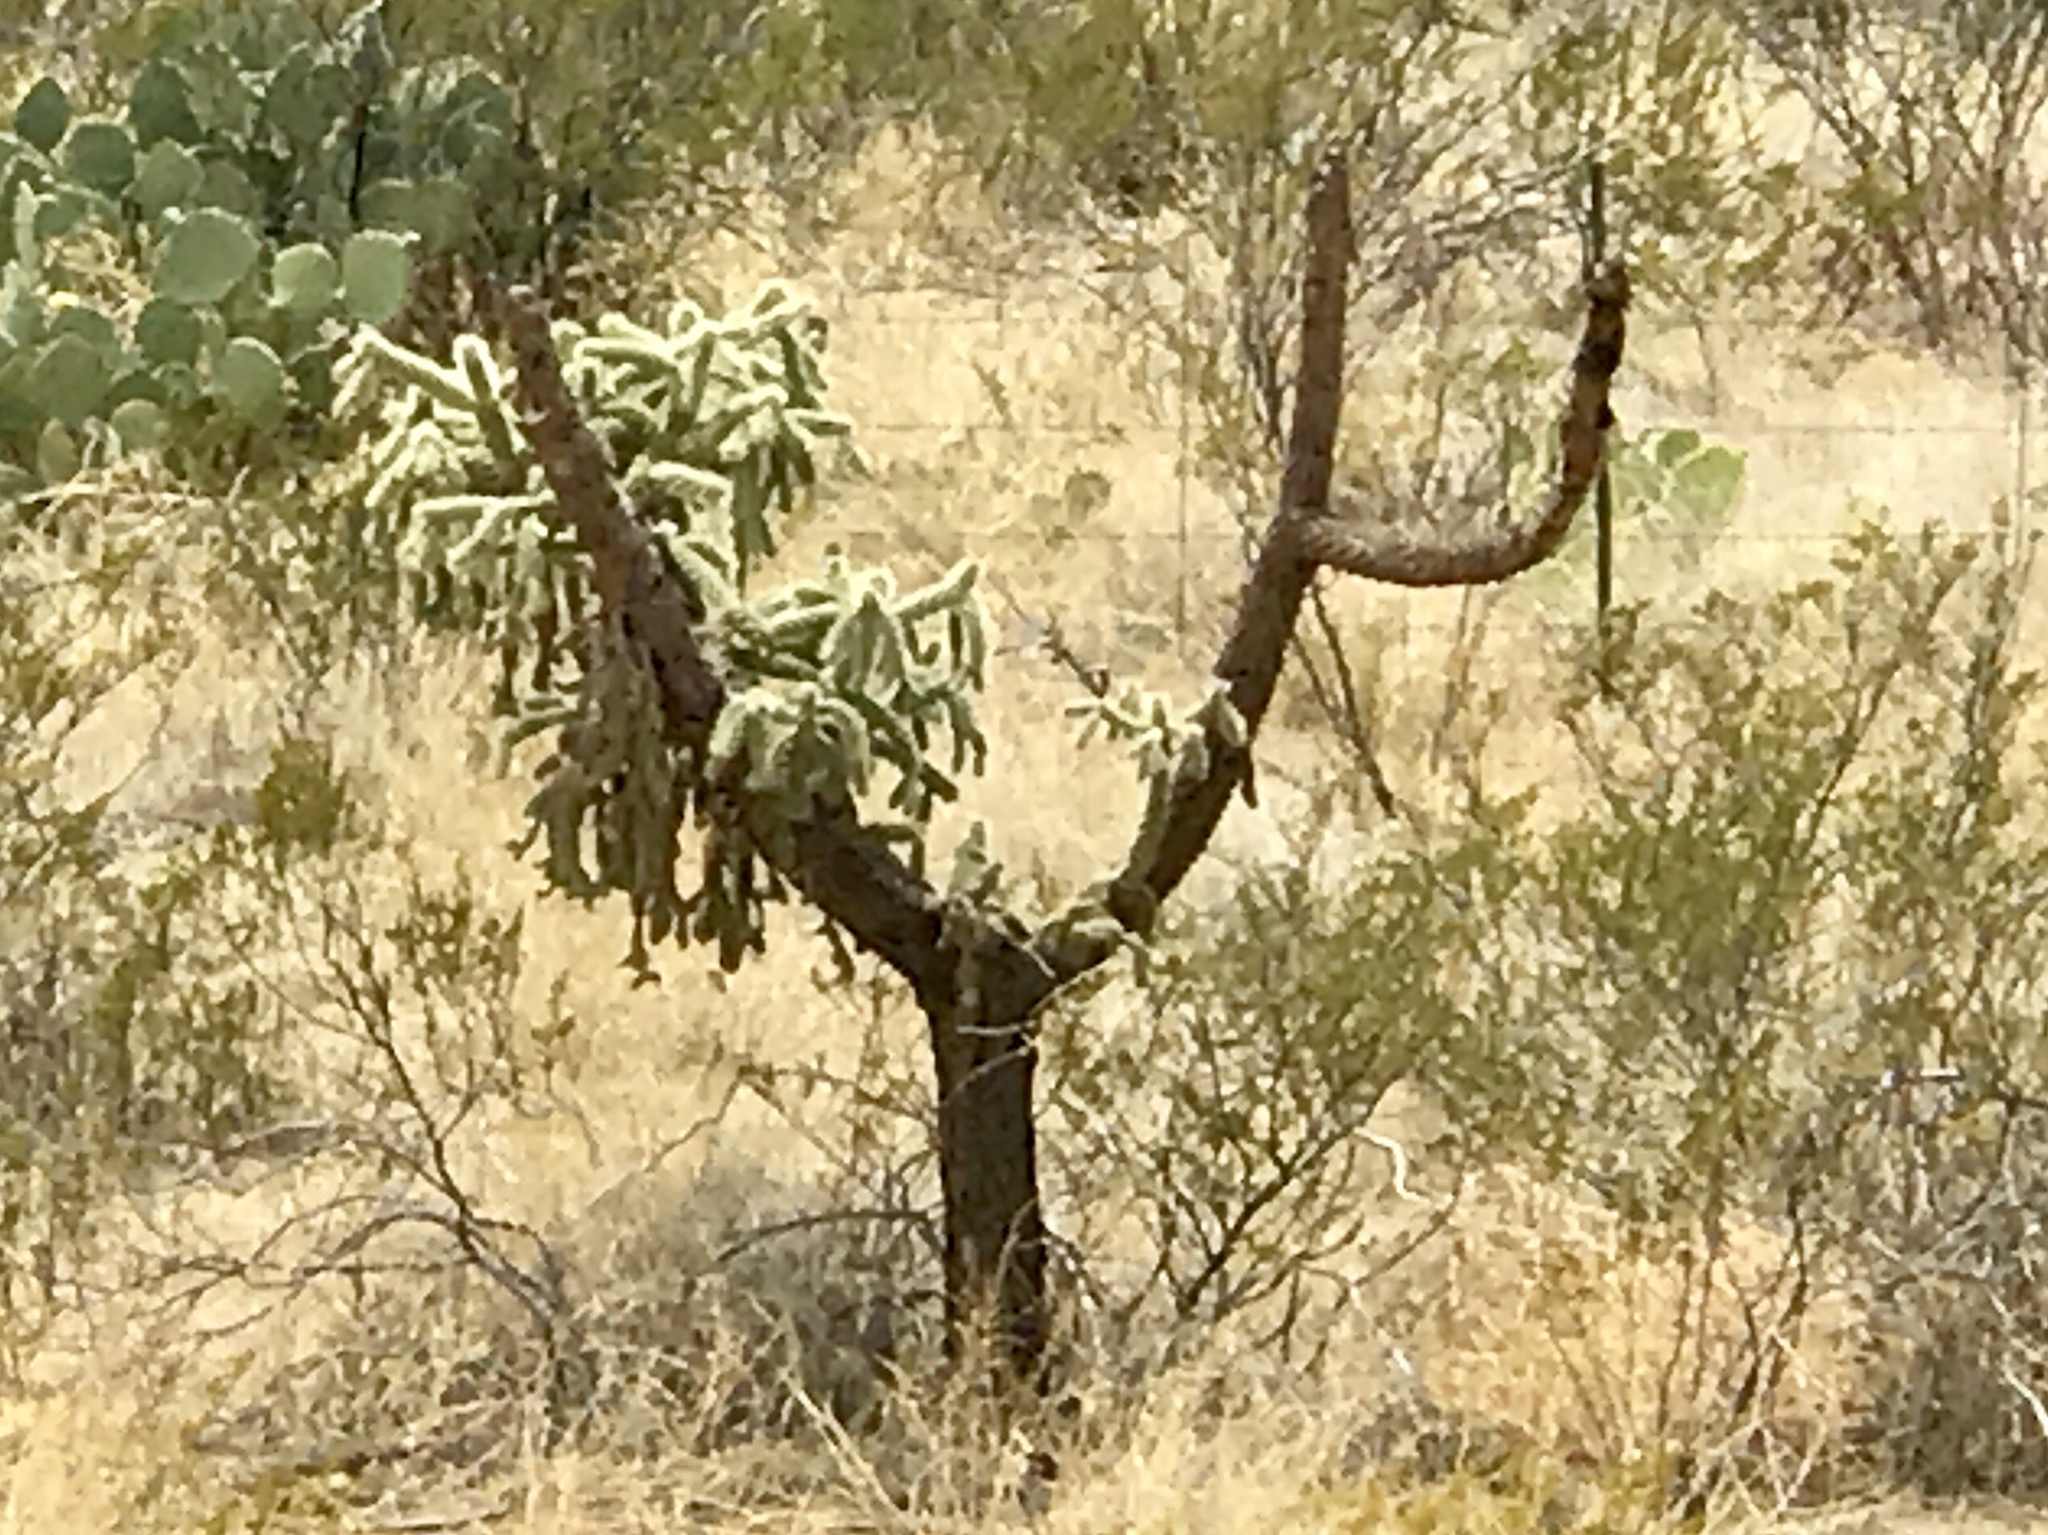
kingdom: Plantae
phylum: Tracheophyta
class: Magnoliopsida
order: Caryophyllales
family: Cactaceae
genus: Cylindropuntia
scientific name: Cylindropuntia fulgida
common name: Jumping cholla
